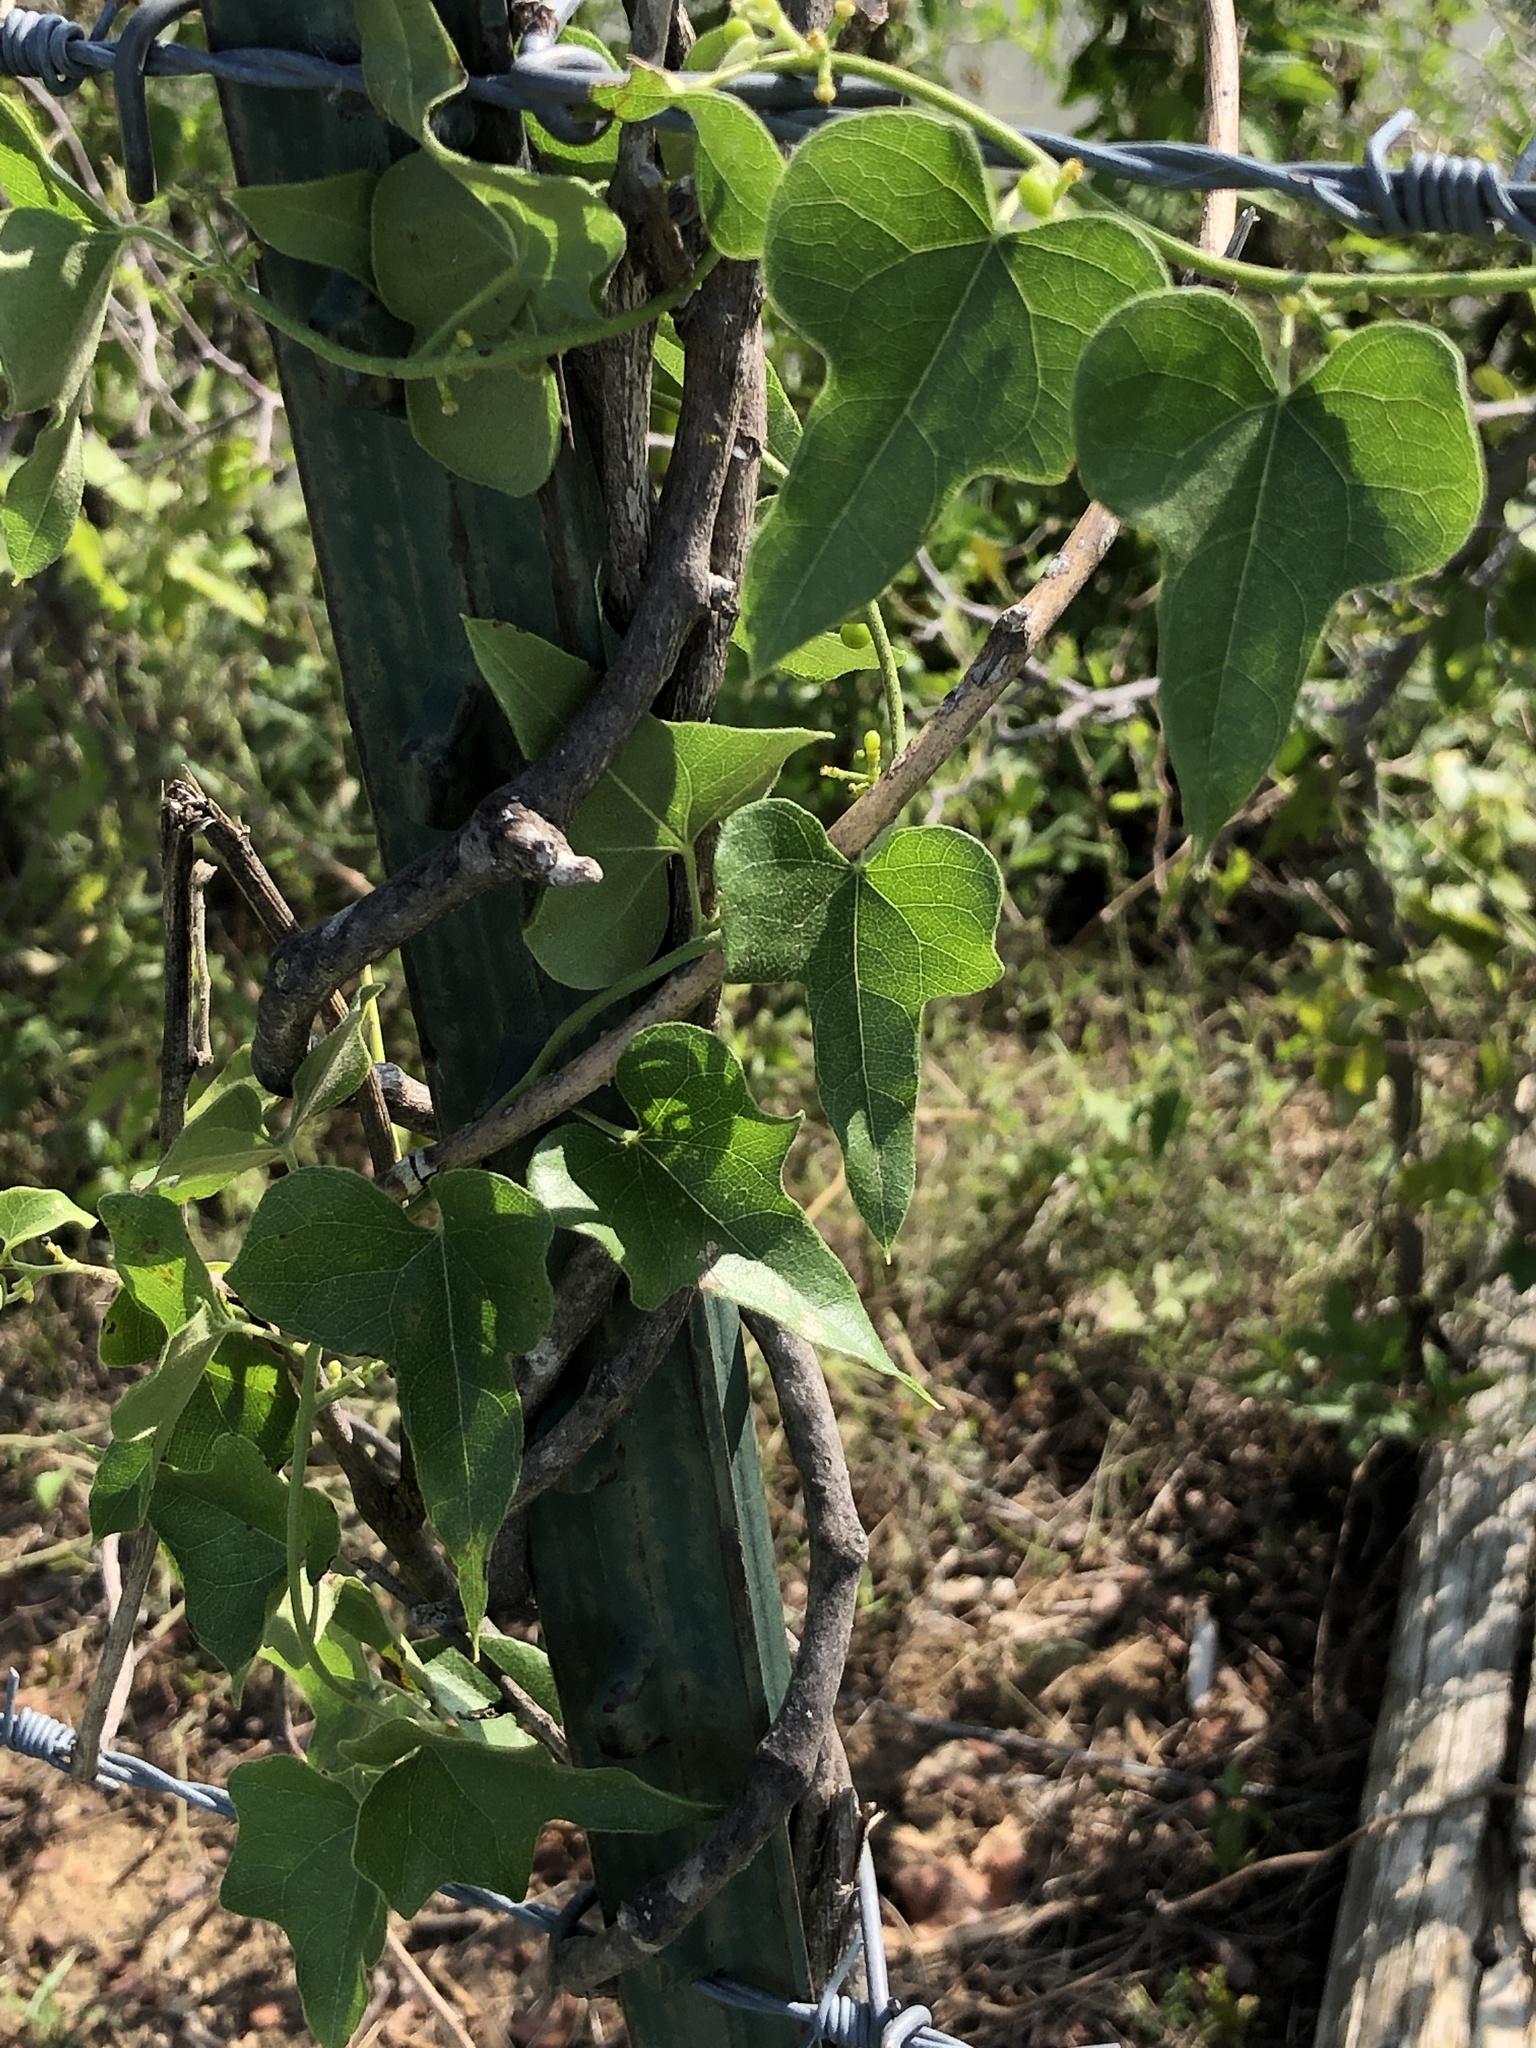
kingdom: Plantae
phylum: Tracheophyta
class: Magnoliopsida
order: Ranunculales
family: Menispermaceae
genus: Cocculus
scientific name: Cocculus carolinus
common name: Carolina moonseed
